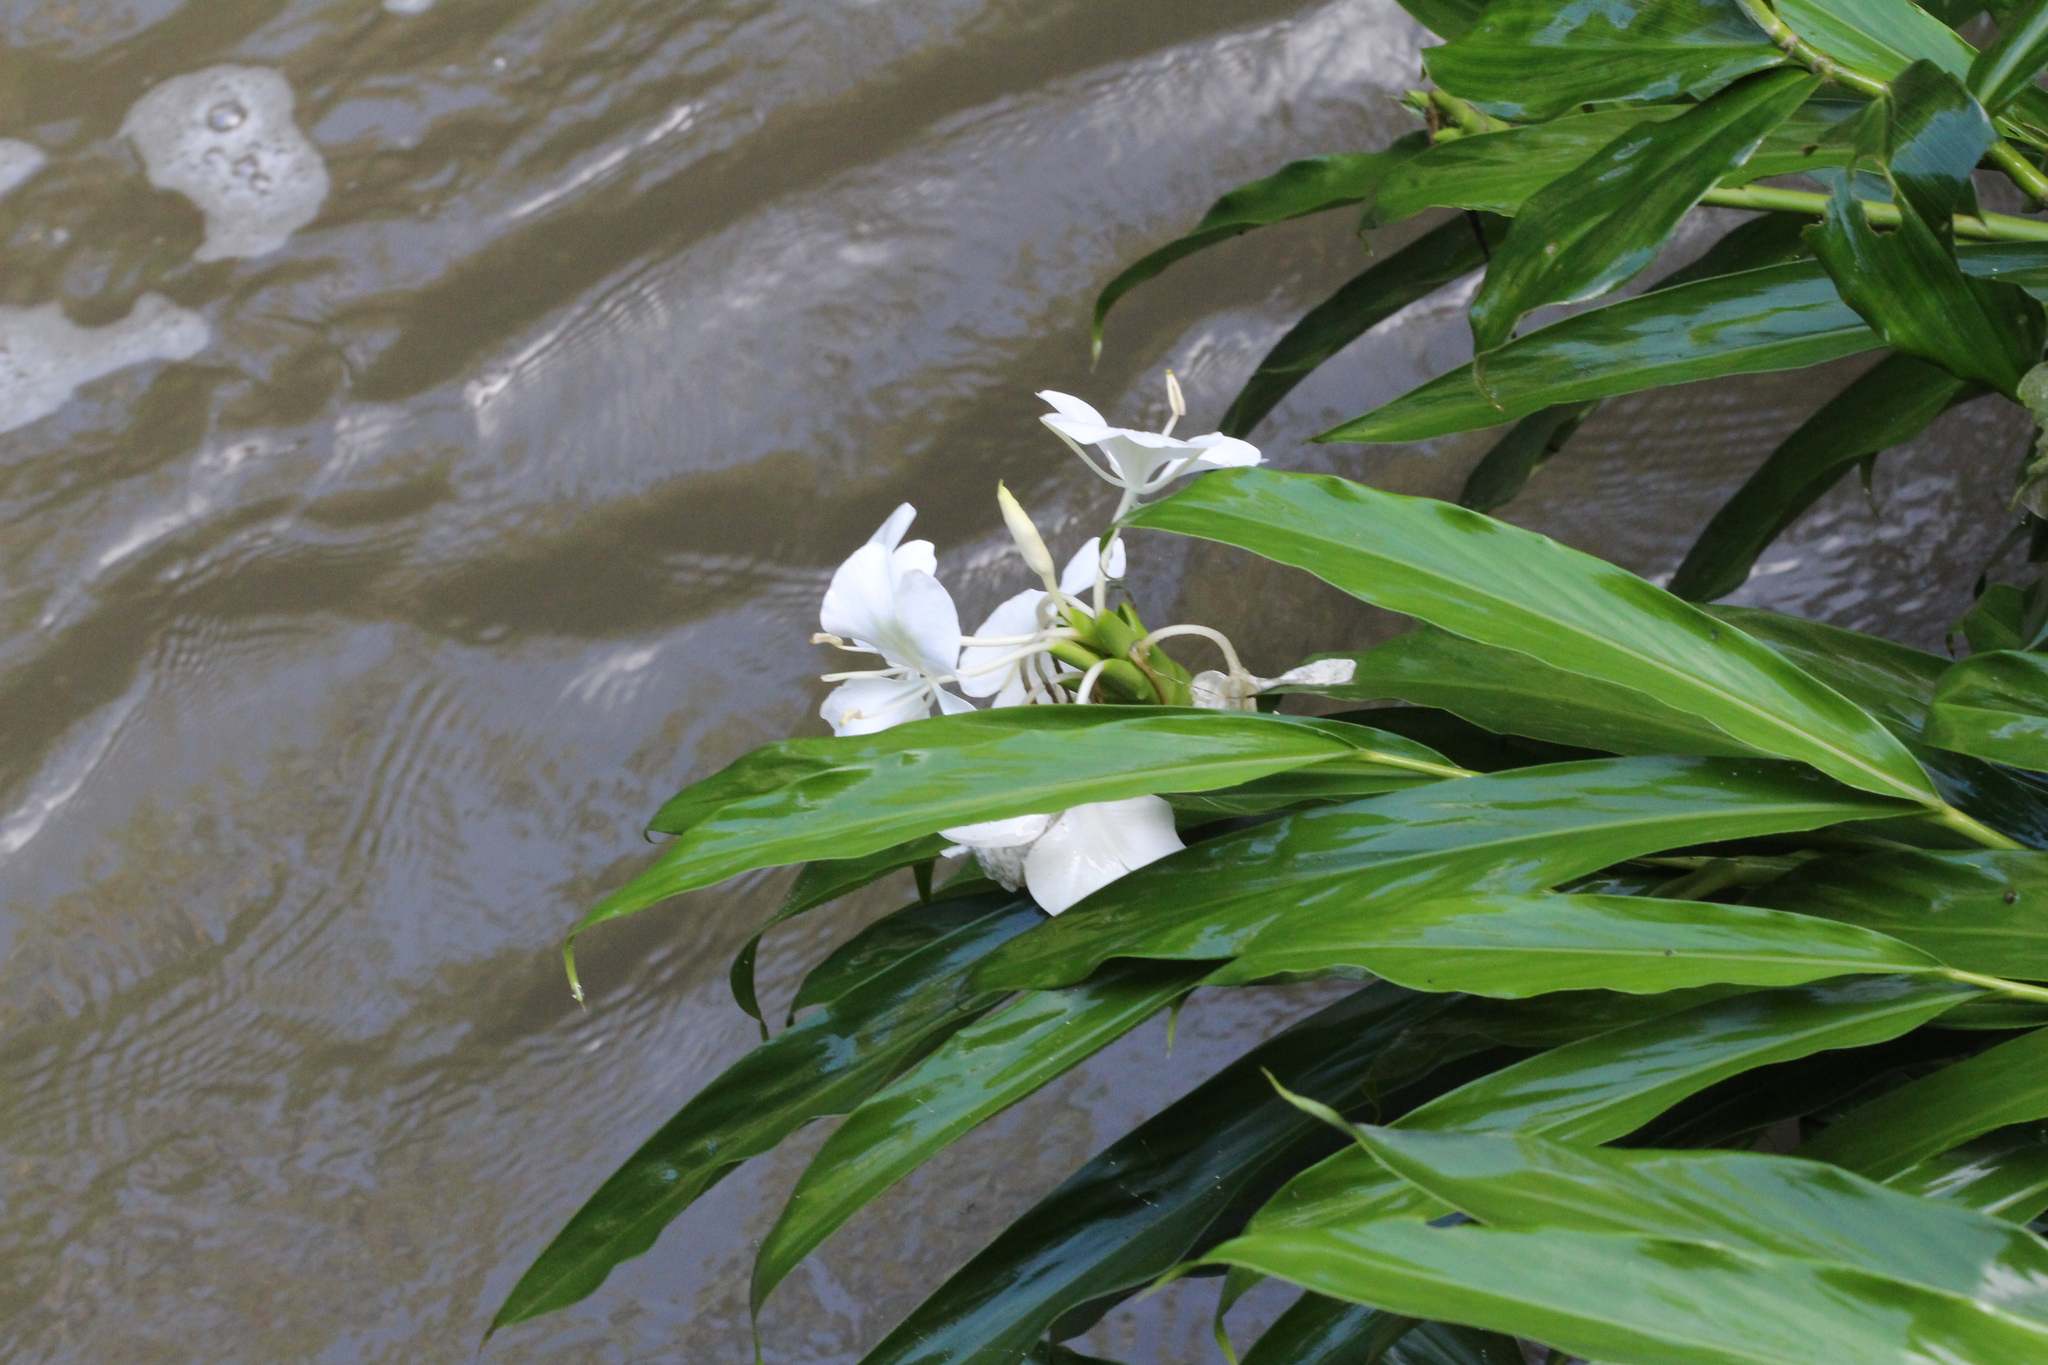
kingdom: Plantae
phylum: Tracheophyta
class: Liliopsida
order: Zingiberales
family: Zingiberaceae
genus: Hedychium
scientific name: Hedychium coronarium
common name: White garland-lily
